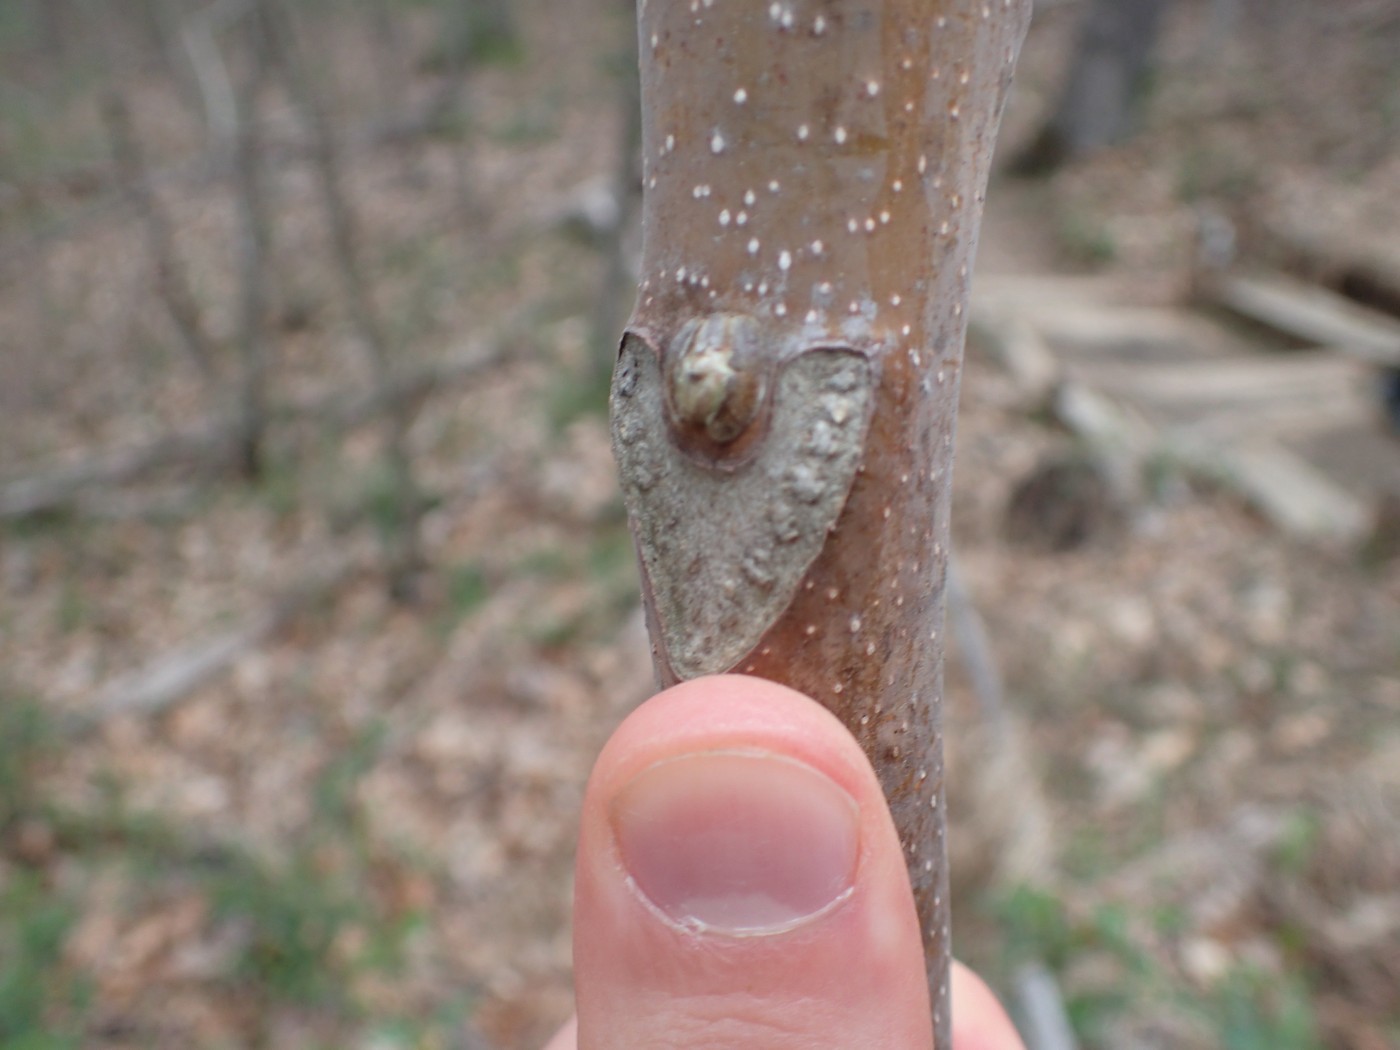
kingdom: Plantae
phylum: Tracheophyta
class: Magnoliopsida
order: Sapindales
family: Anacardiaceae
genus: Rhus
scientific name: Rhus glabra
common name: Scarlet sumac
